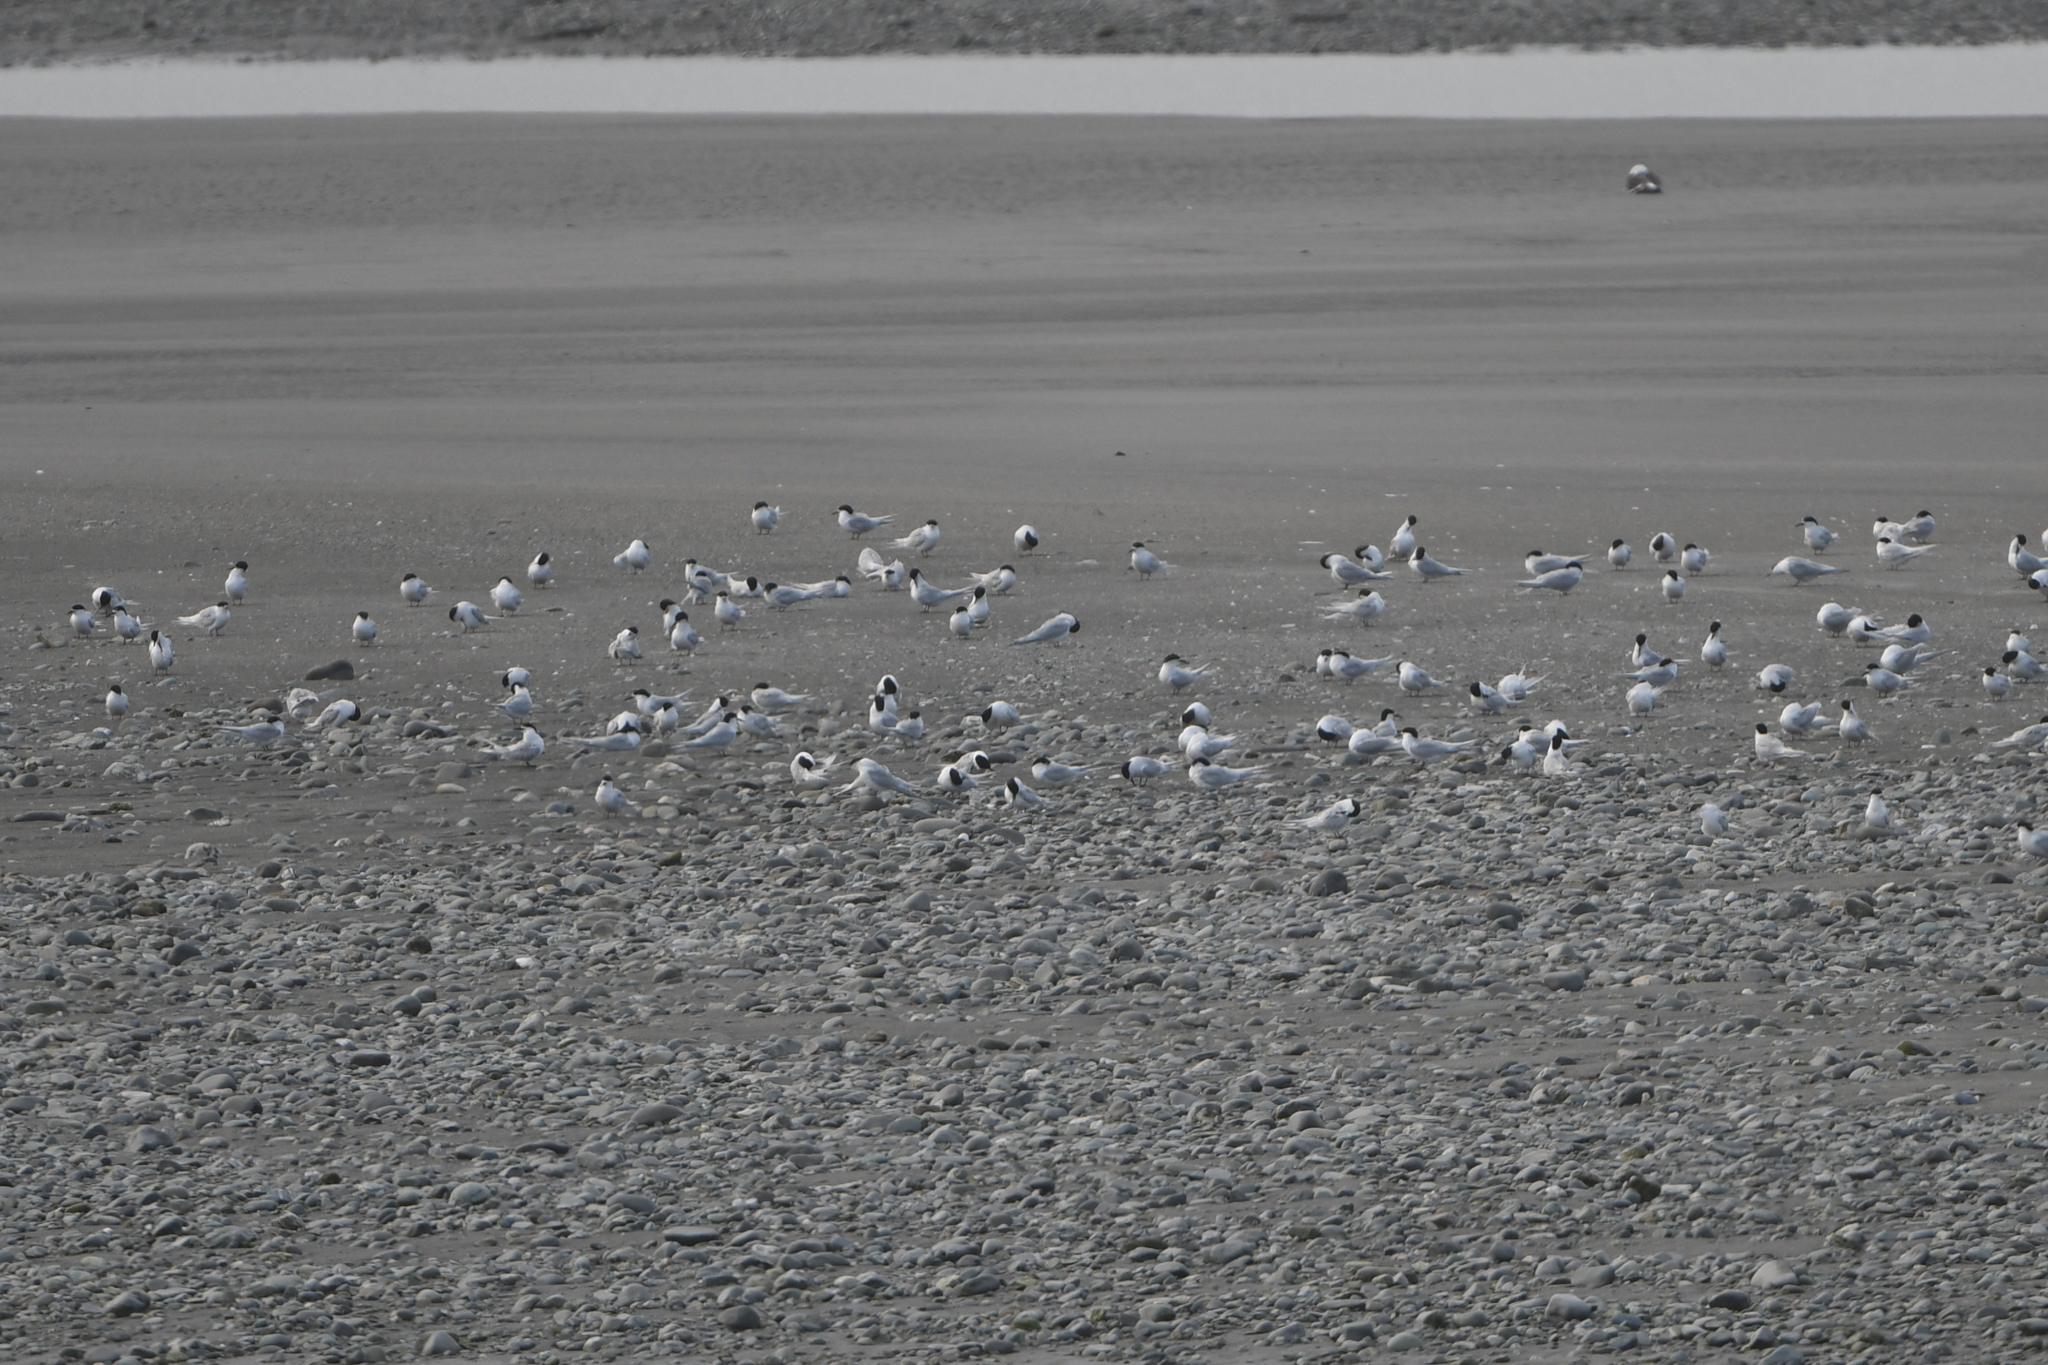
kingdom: Animalia
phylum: Chordata
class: Aves
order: Charadriiformes
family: Laridae
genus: Sterna
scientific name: Sterna striata
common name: White-fronted tern
